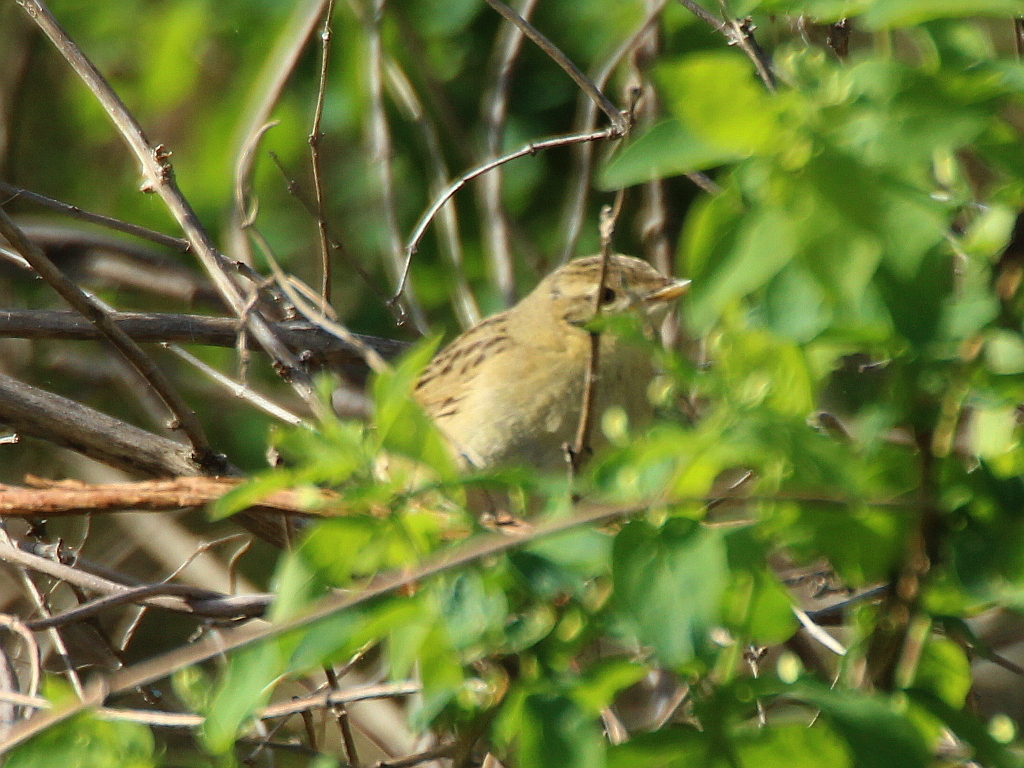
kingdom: Animalia
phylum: Chordata
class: Aves
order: Passeriformes
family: Locustellidae
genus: Locustella
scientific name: Locustella naevia
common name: Common grasshopper warbler
